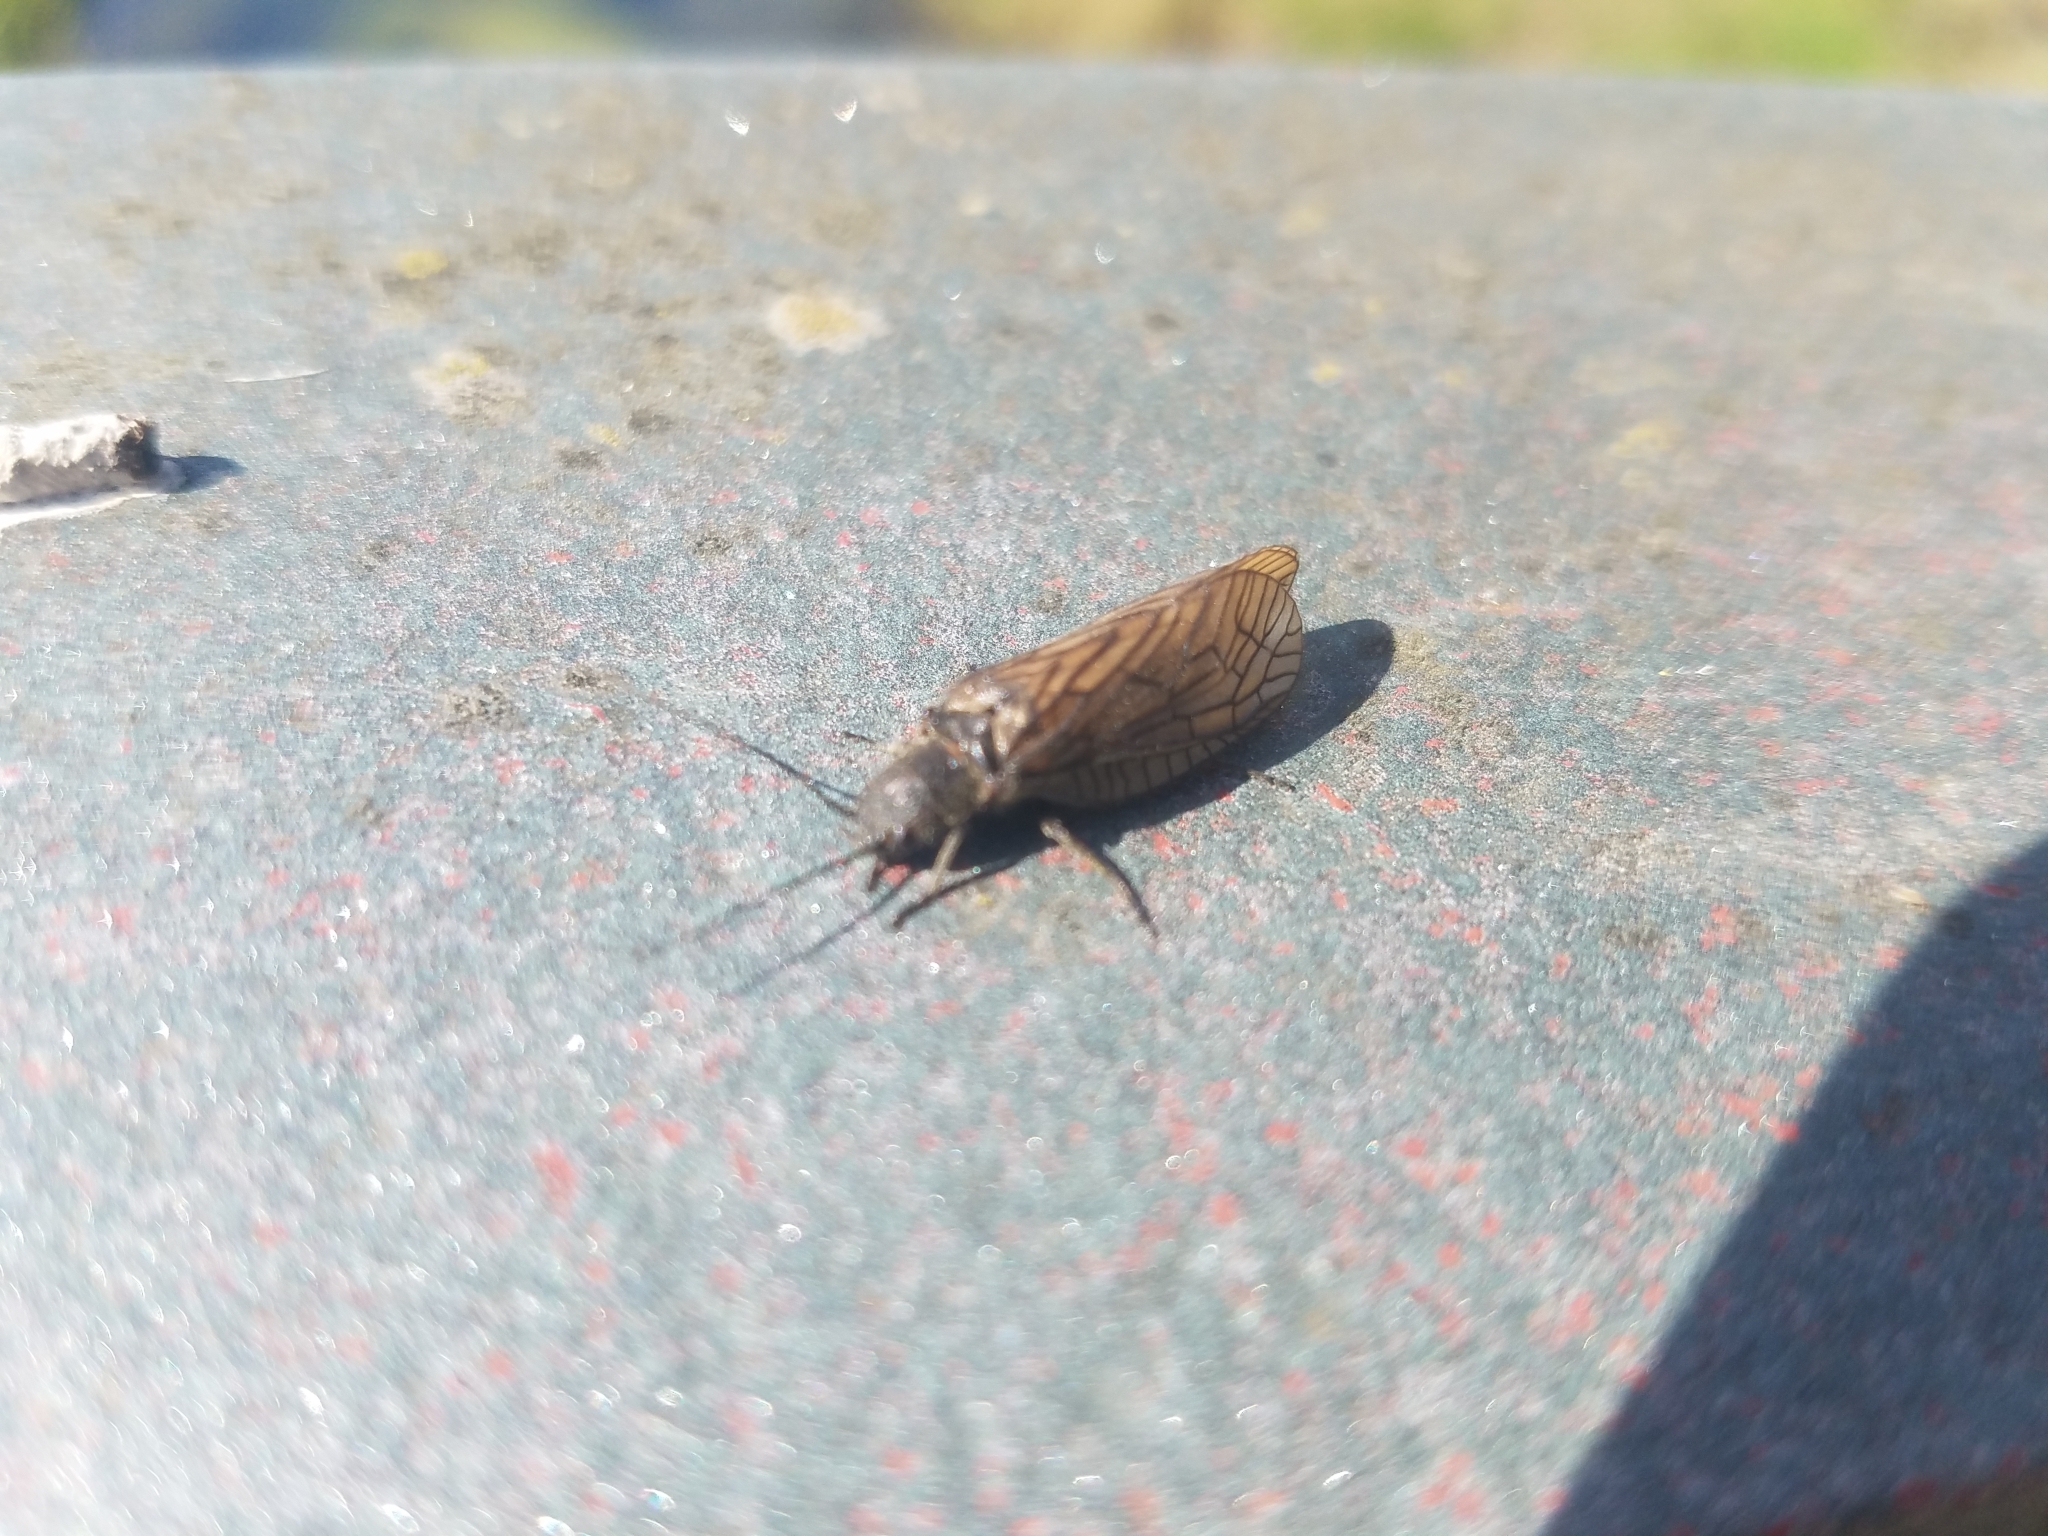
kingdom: Animalia
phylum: Arthropoda
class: Insecta
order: Megaloptera
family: Sialidae
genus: Sialis
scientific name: Sialis
